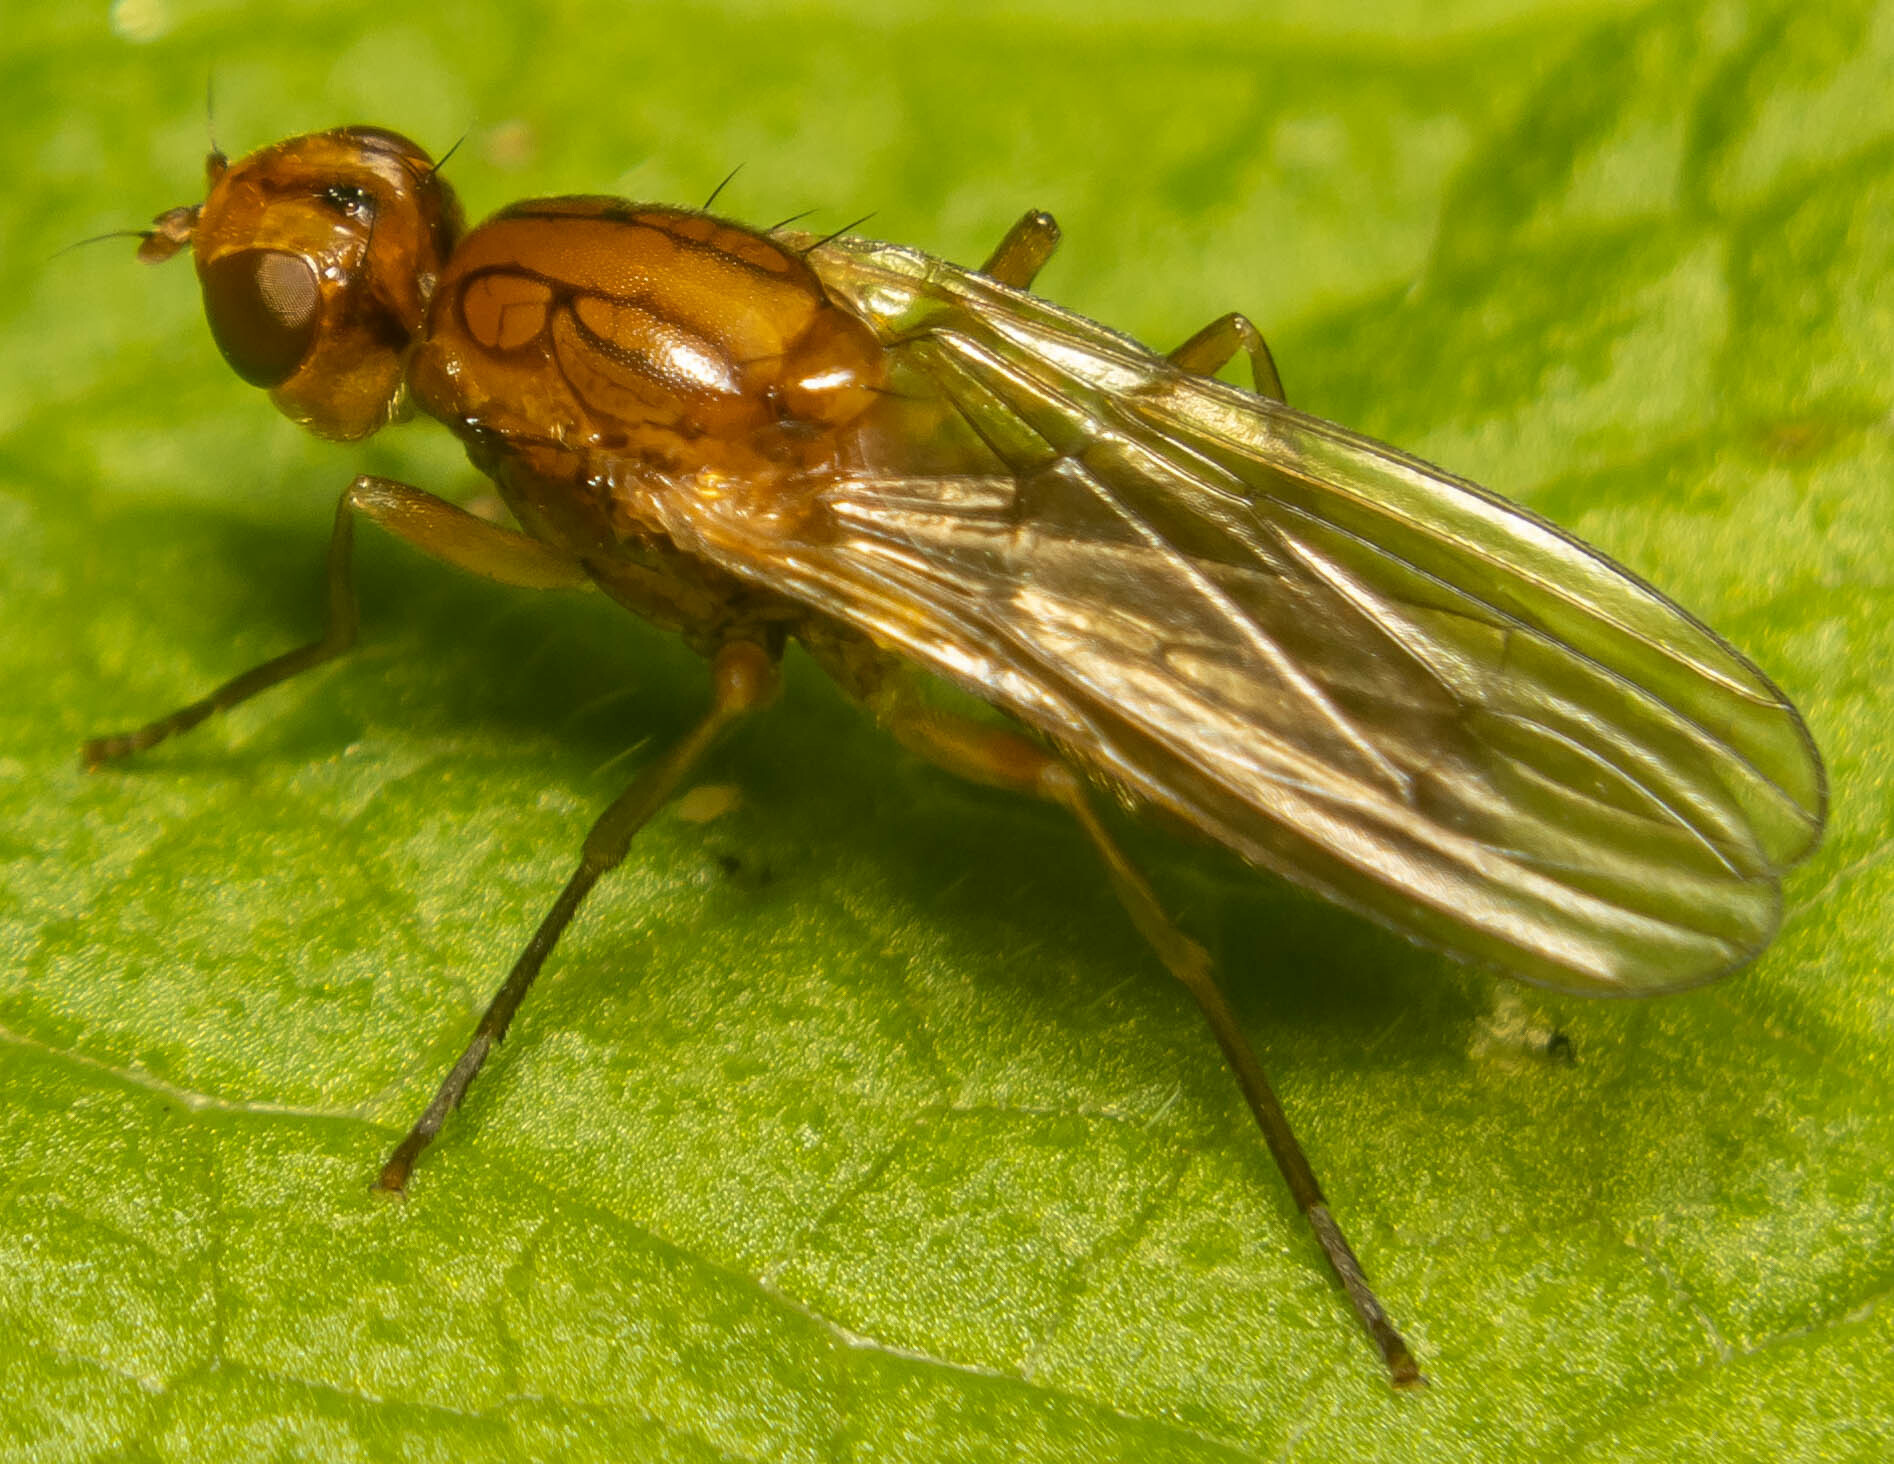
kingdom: Animalia
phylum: Arthropoda
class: Insecta
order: Diptera
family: Psilidae
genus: Psila
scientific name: Psila fimetaria
